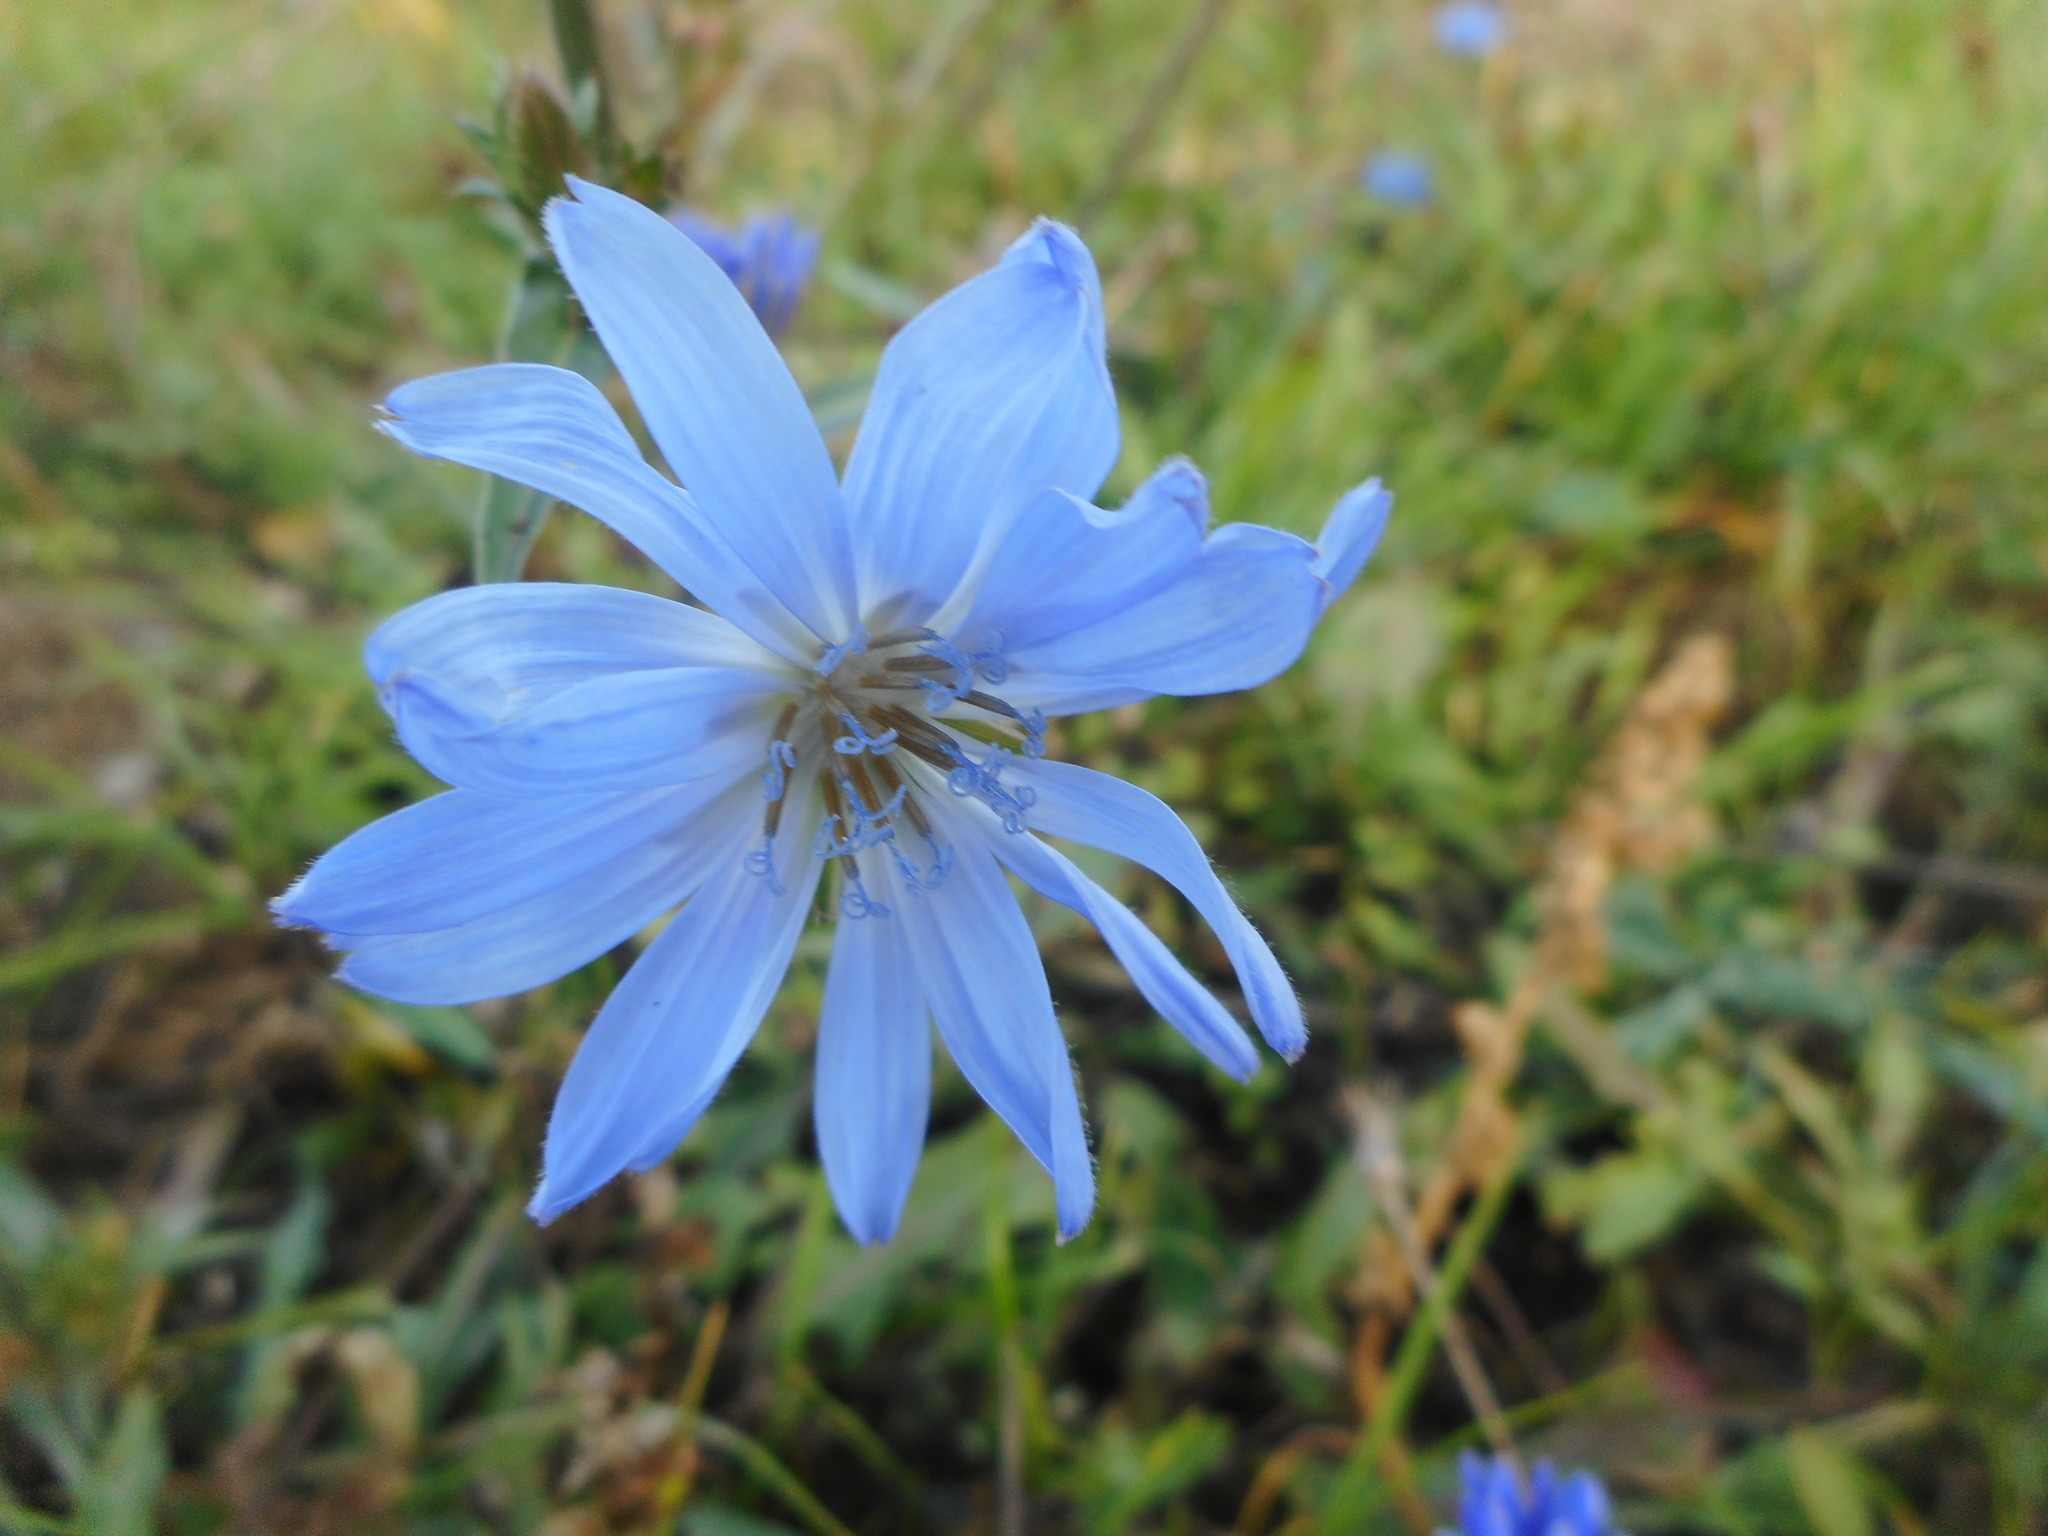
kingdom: Plantae
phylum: Tracheophyta
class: Magnoliopsida
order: Asterales
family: Asteraceae
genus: Cichorium
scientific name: Cichorium intybus
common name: Chicory
